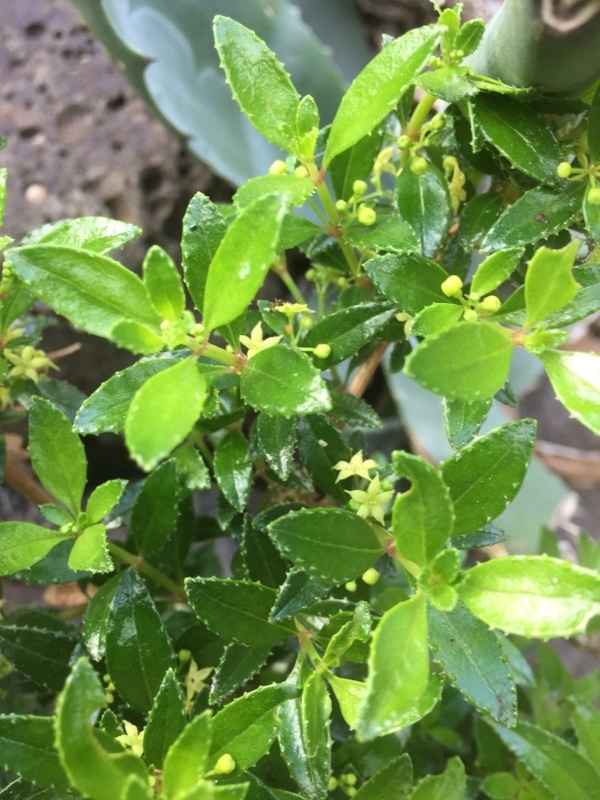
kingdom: Plantae
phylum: Tracheophyta
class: Magnoliopsida
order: Gentianales
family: Rubiaceae
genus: Rubia
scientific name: Rubia fruticosa
